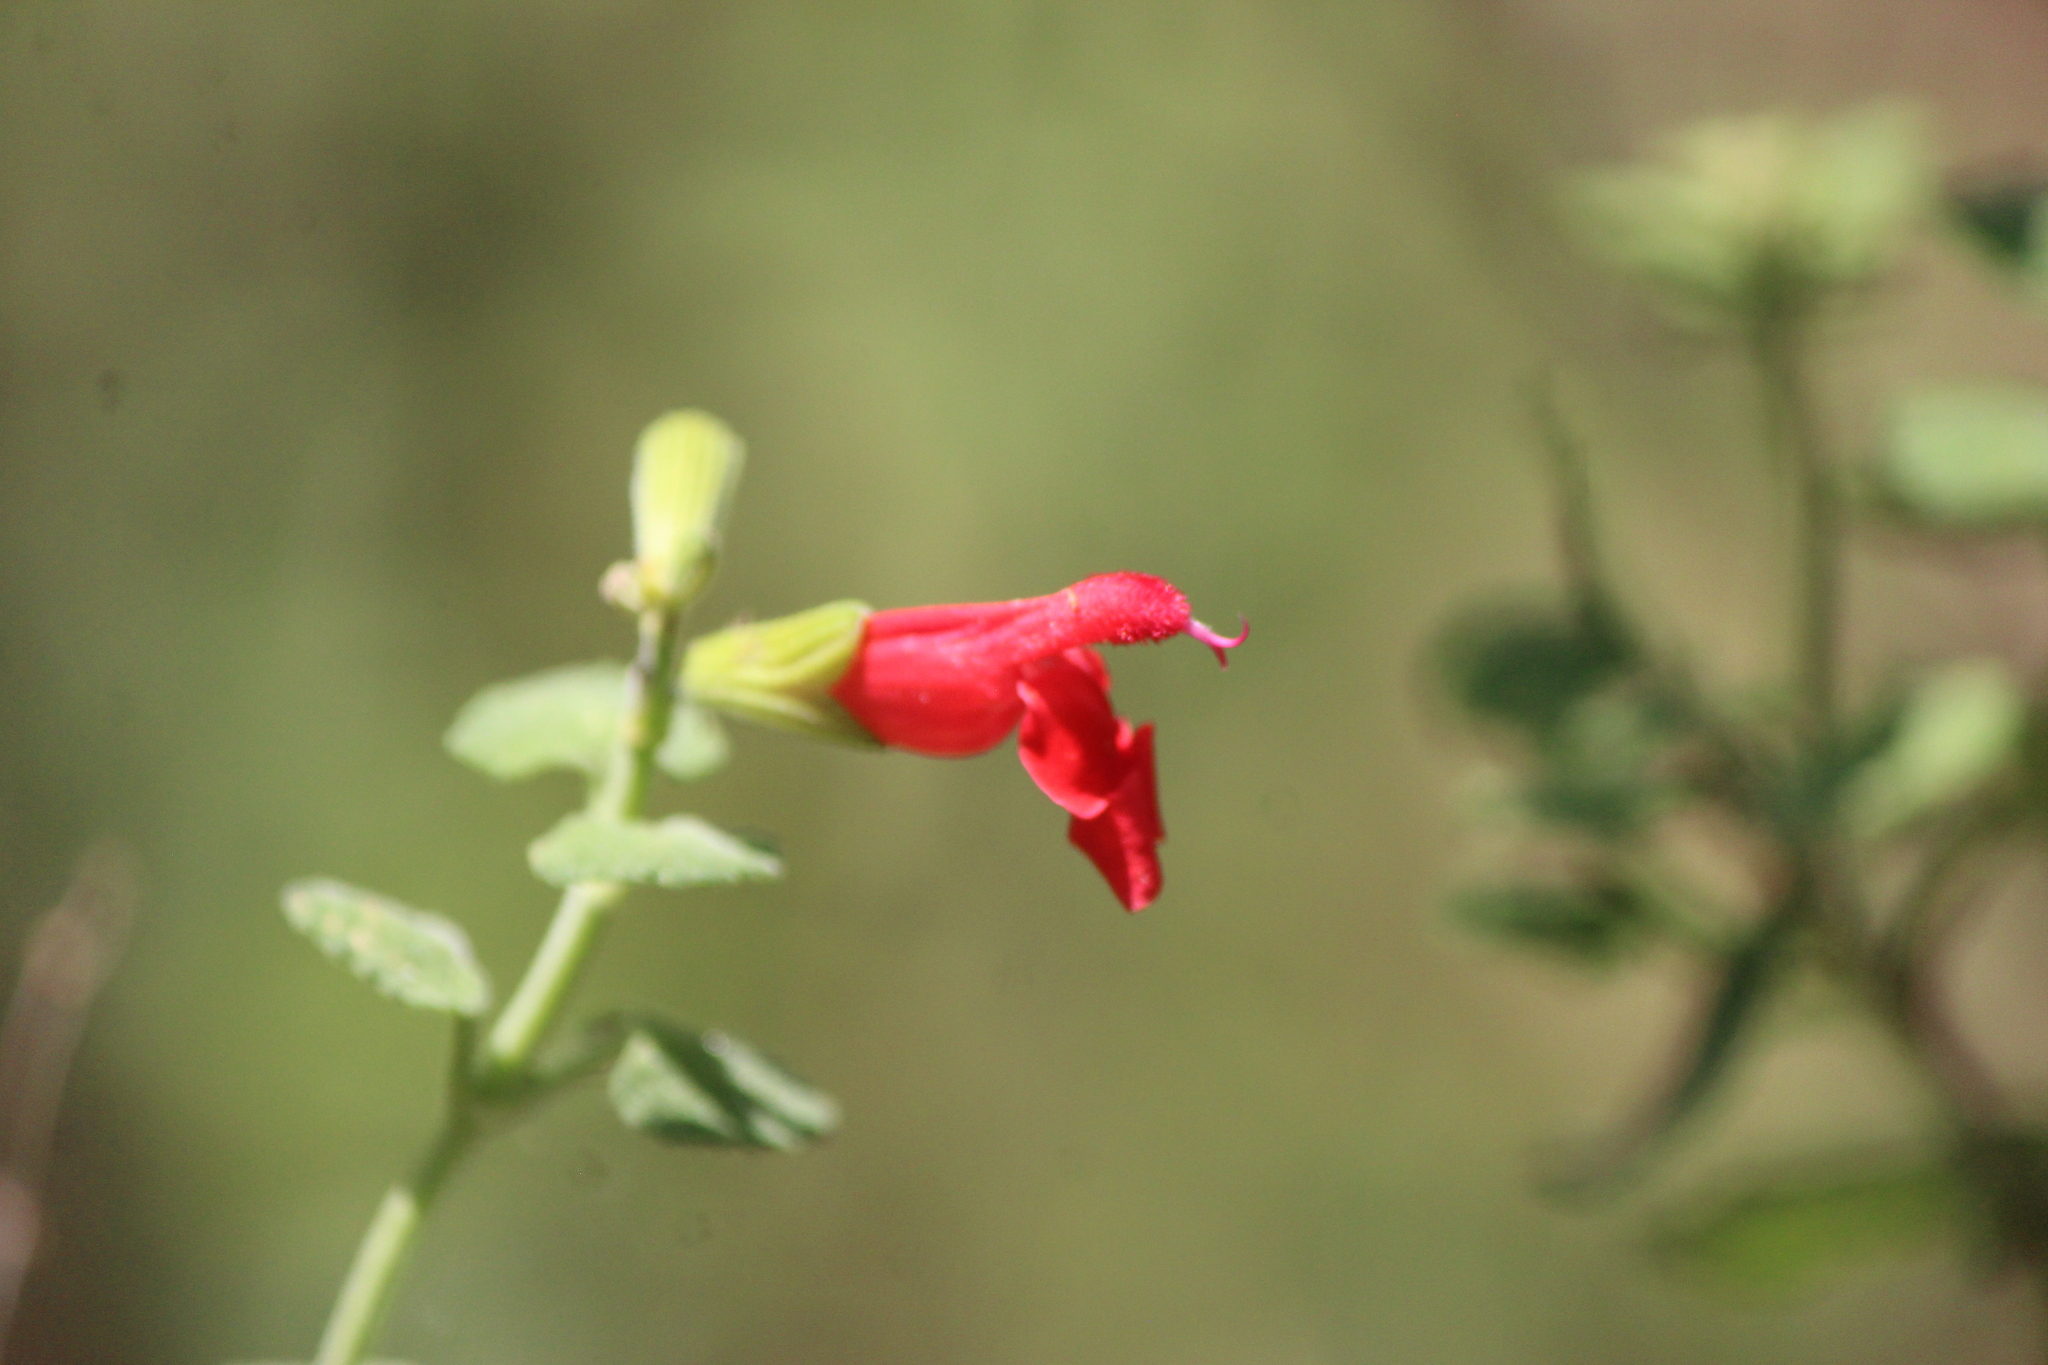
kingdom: Plantae
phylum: Tracheophyta
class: Magnoliopsida
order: Lamiales
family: Lamiaceae
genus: Salvia
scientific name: Salvia microphylla
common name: Baby sage
